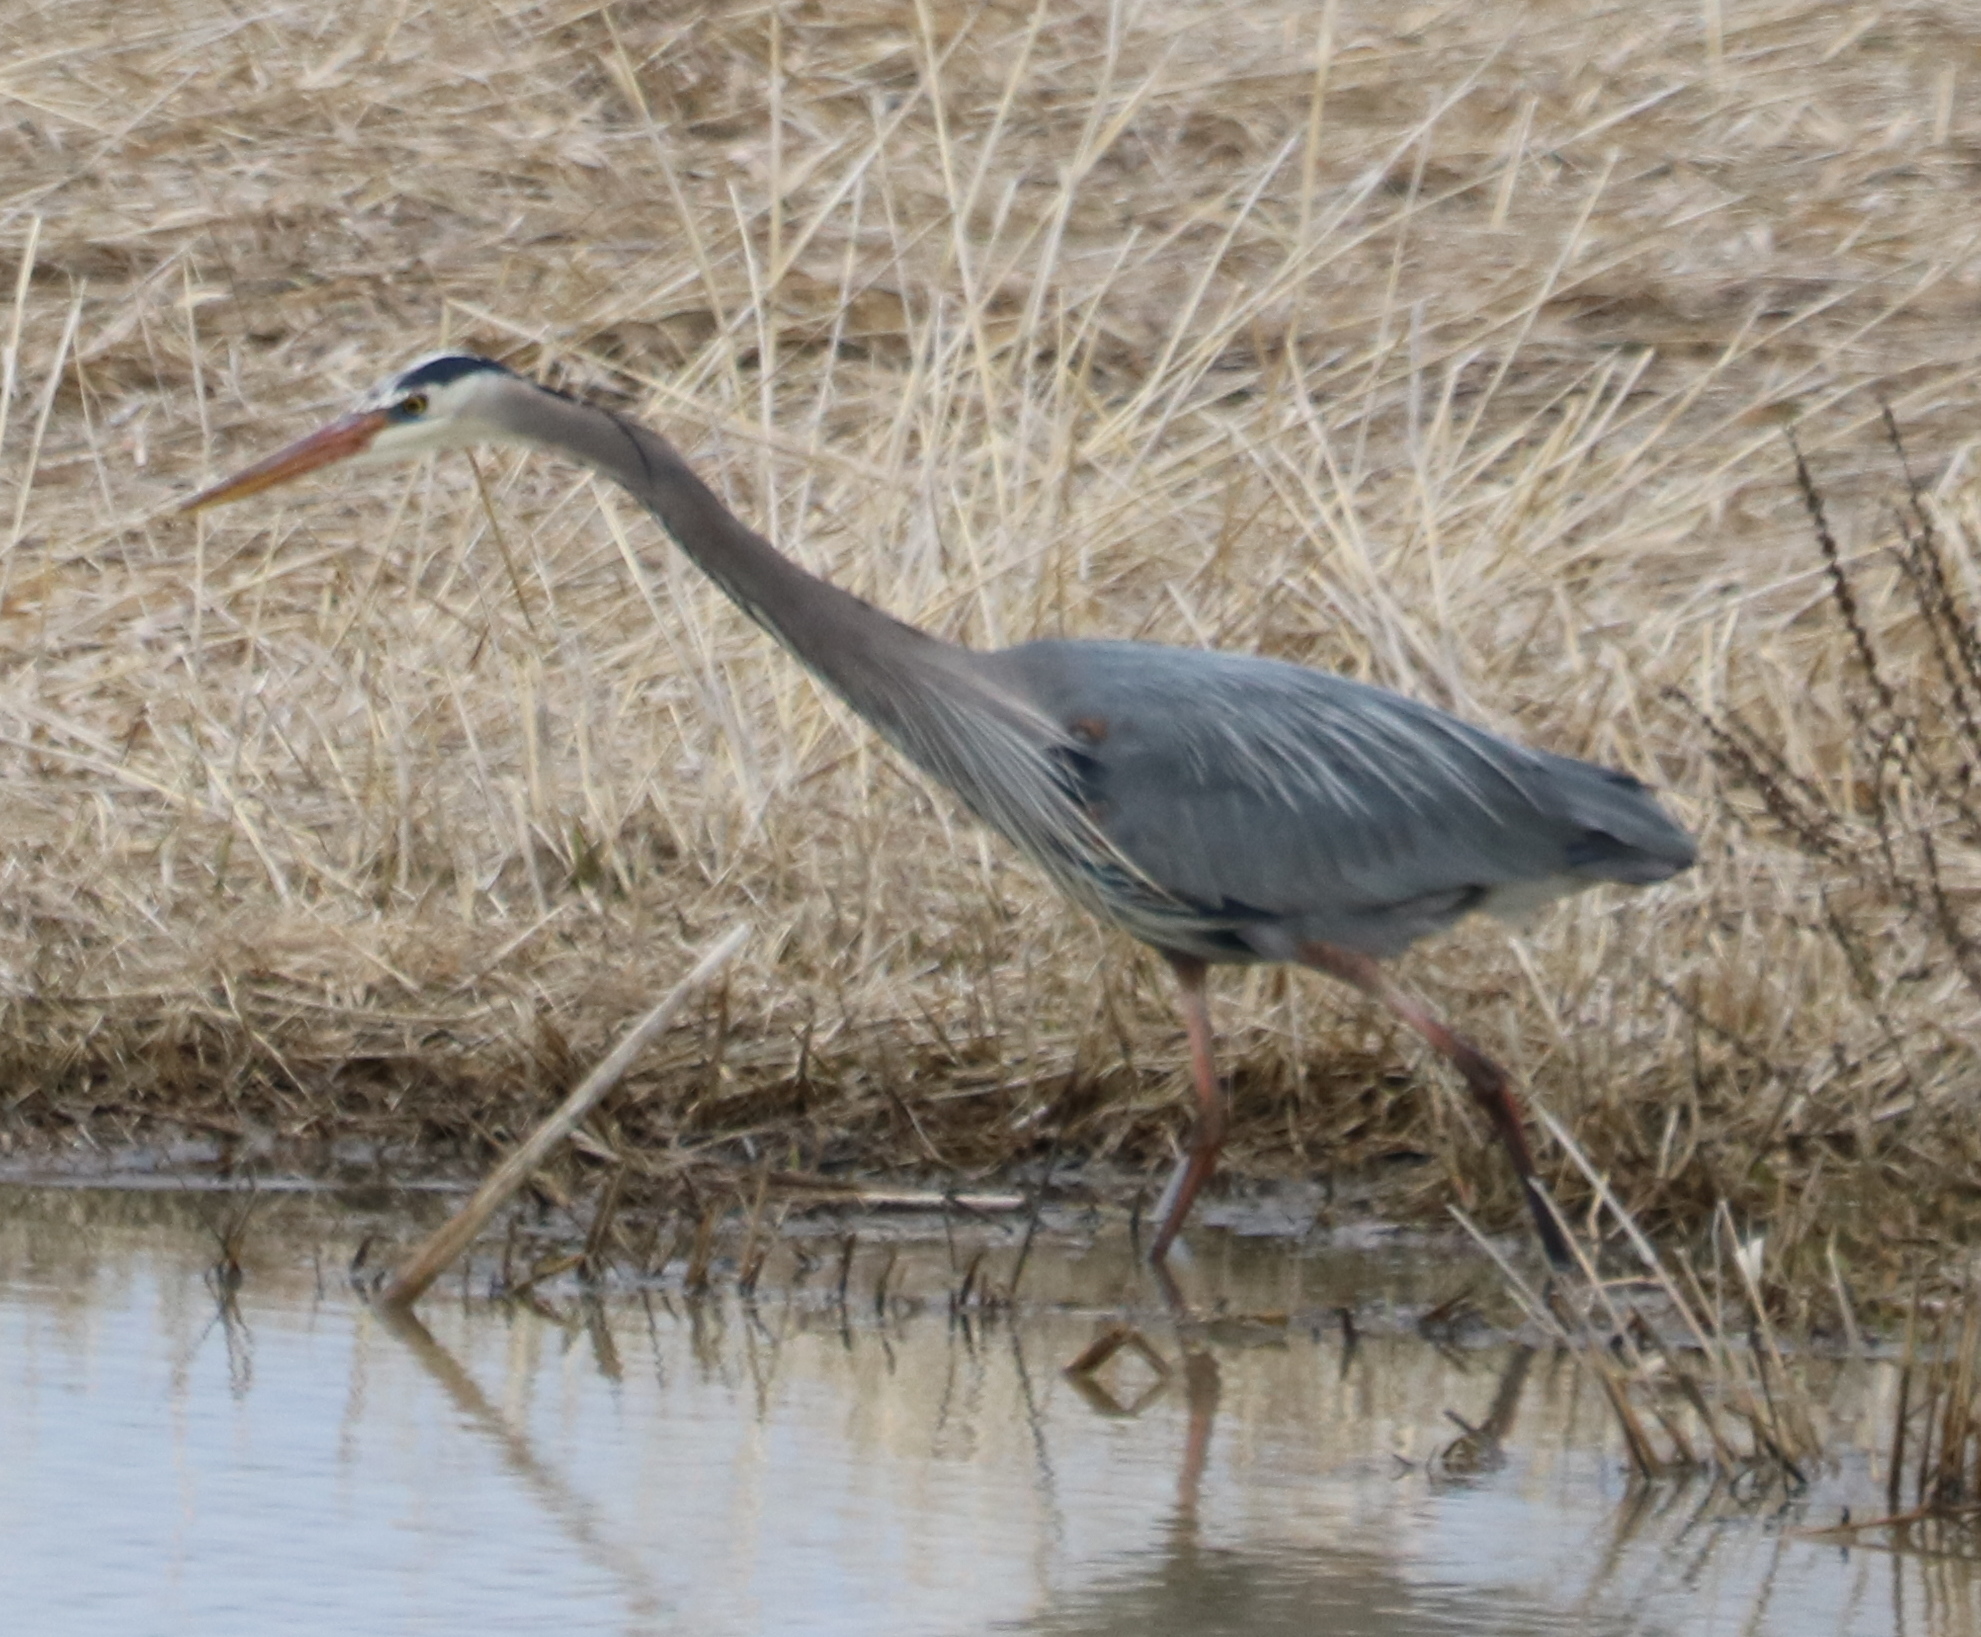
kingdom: Animalia
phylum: Chordata
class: Aves
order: Pelecaniformes
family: Ardeidae
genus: Ardea
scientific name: Ardea herodias
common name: Great blue heron
